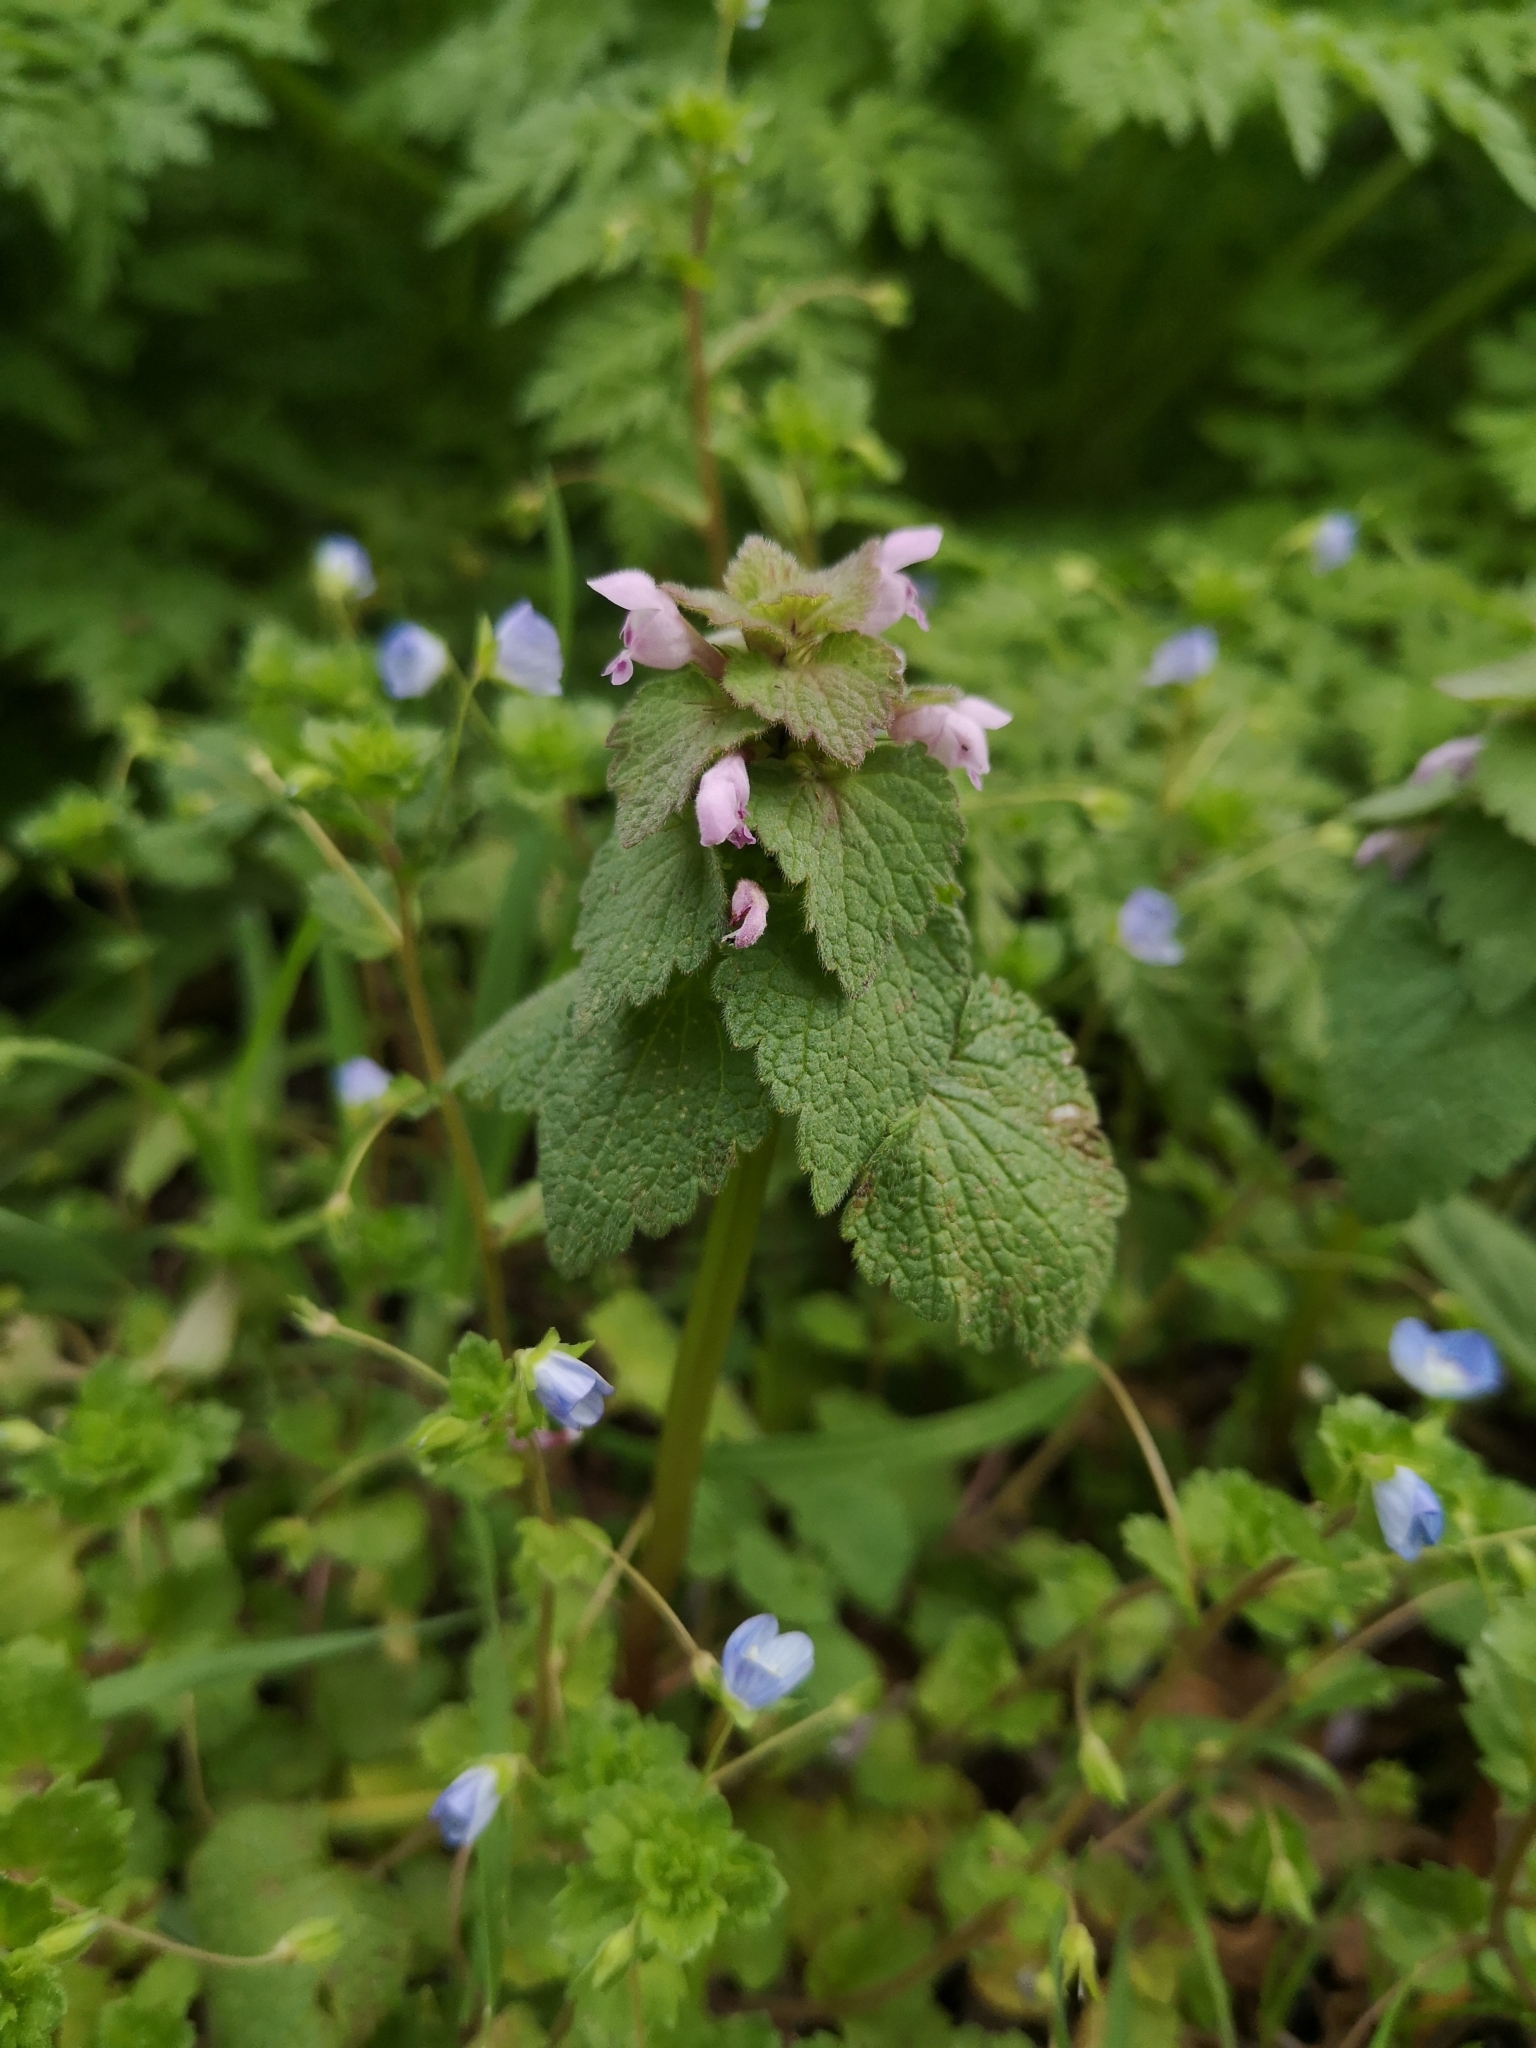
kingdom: Plantae
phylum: Tracheophyta
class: Magnoliopsida
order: Lamiales
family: Lamiaceae
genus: Lamium
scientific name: Lamium purpureum
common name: Red dead-nettle
